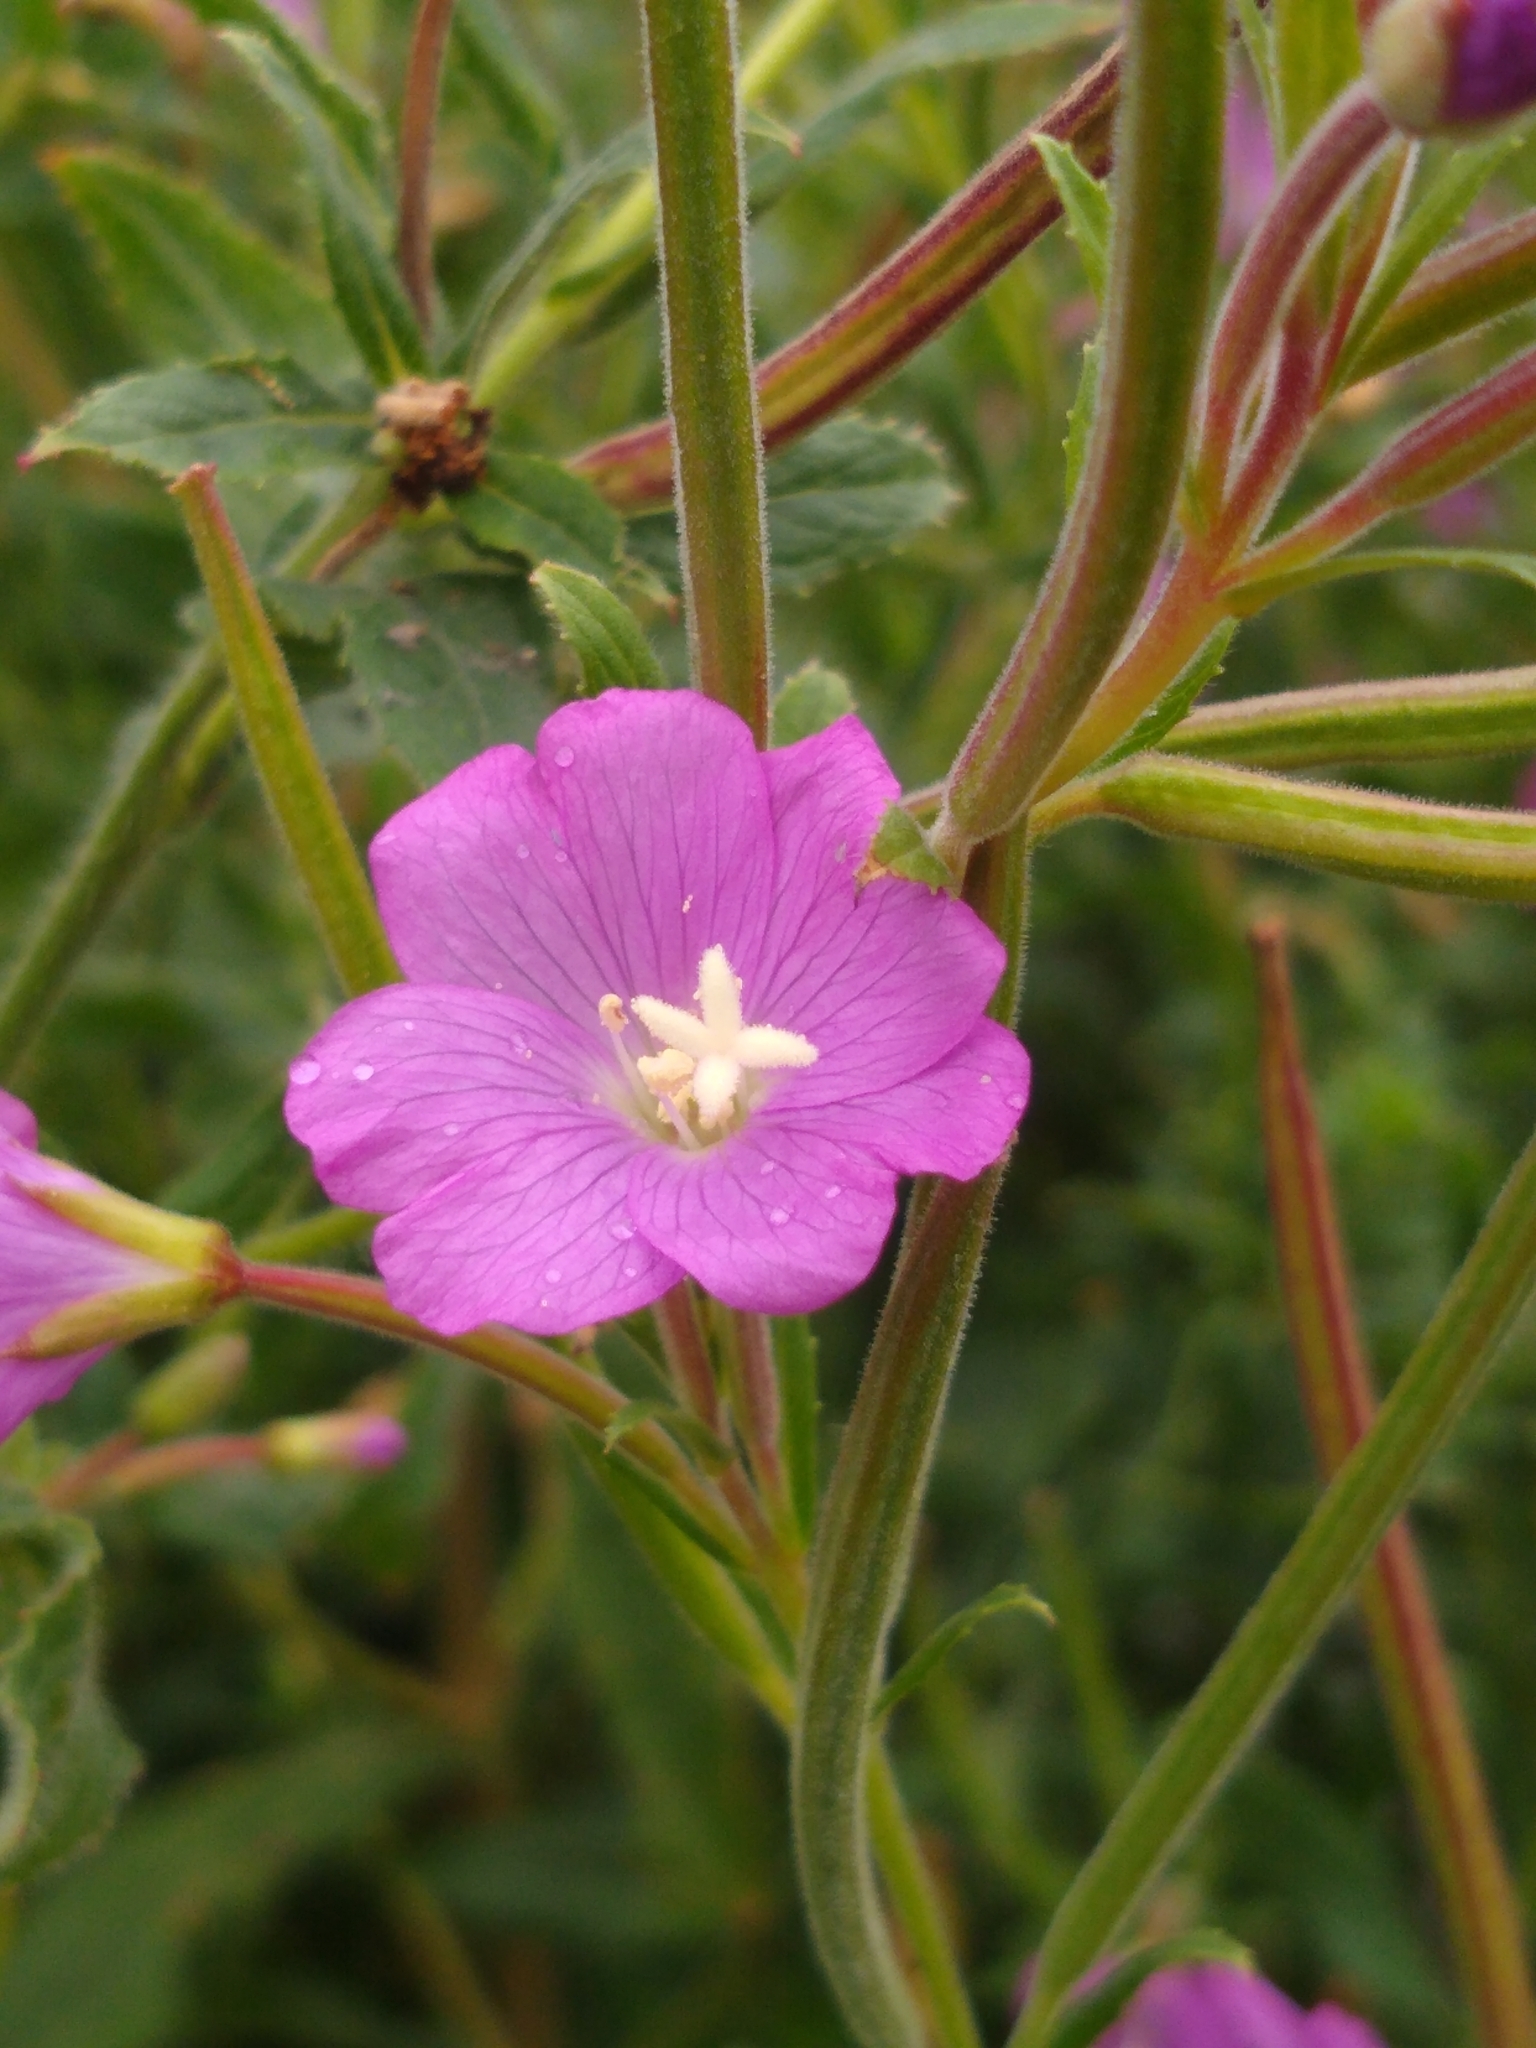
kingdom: Plantae
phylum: Tracheophyta
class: Magnoliopsida
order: Myrtales
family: Onagraceae
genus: Epilobium
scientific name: Epilobium hirsutum
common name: Great willowherb
